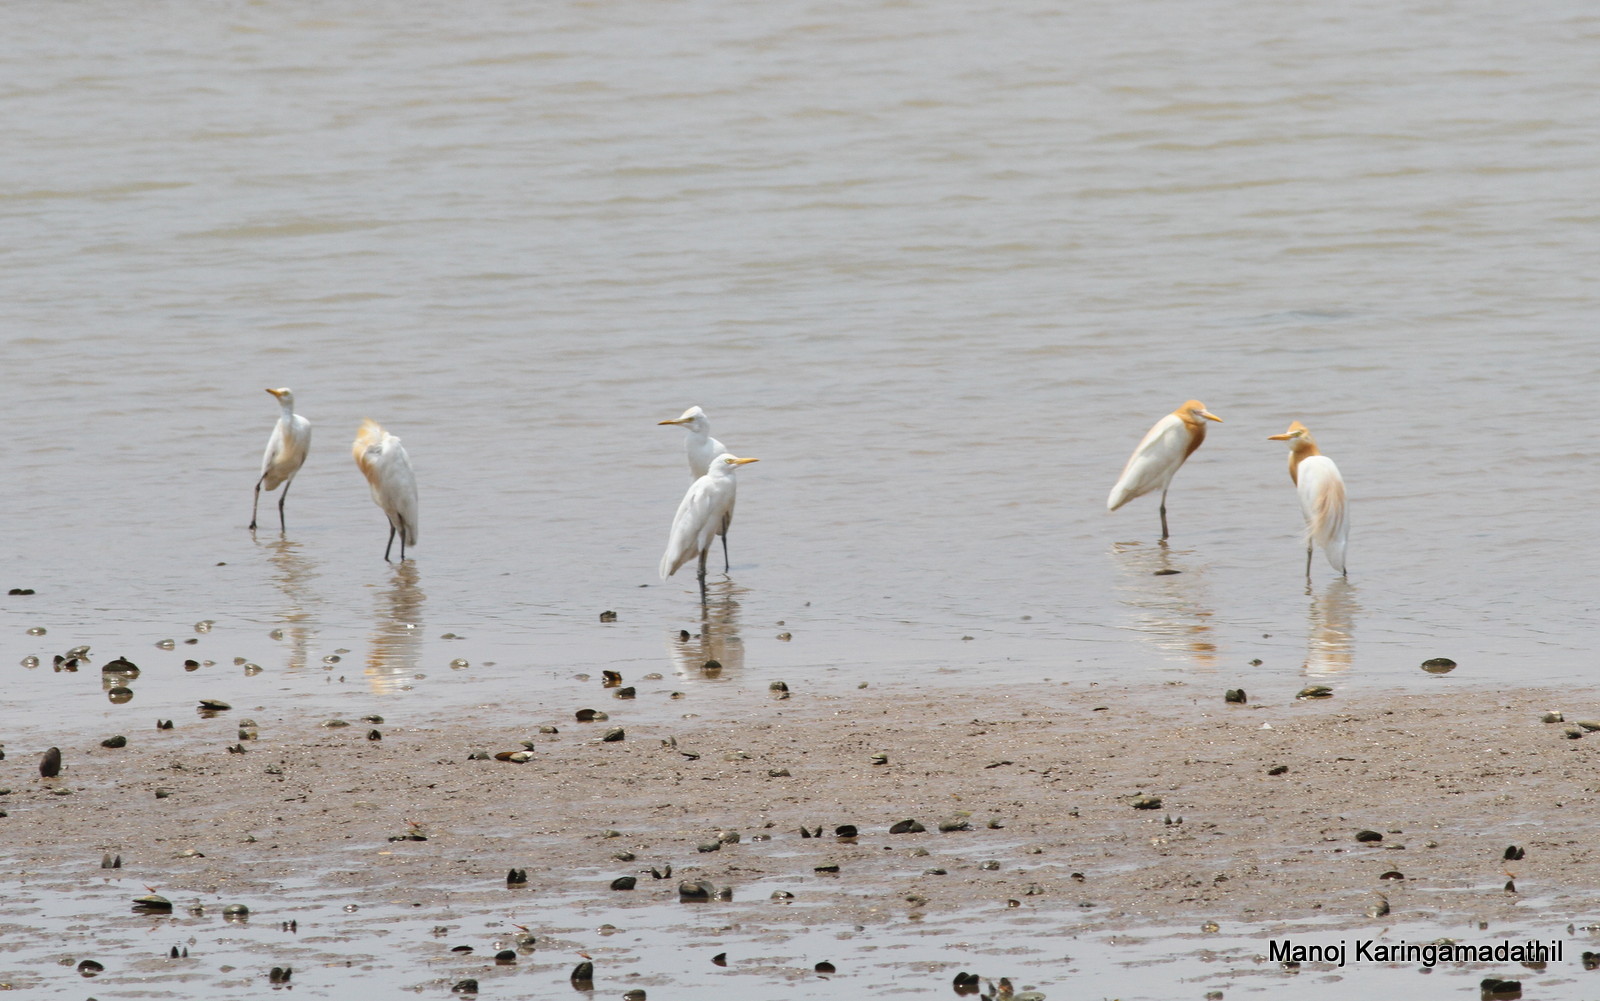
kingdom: Animalia
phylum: Chordata
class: Aves
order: Pelecaniformes
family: Ardeidae
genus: Bubulcus
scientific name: Bubulcus coromandus
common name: Eastern cattle egret
